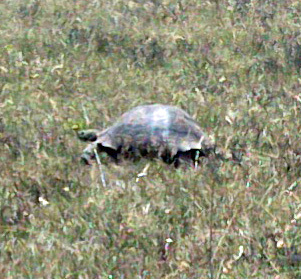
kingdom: Animalia
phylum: Chordata
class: Testudines
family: Testudinidae
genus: Stigmochelys
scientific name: Stigmochelys pardalis
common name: Leopard tortoise
